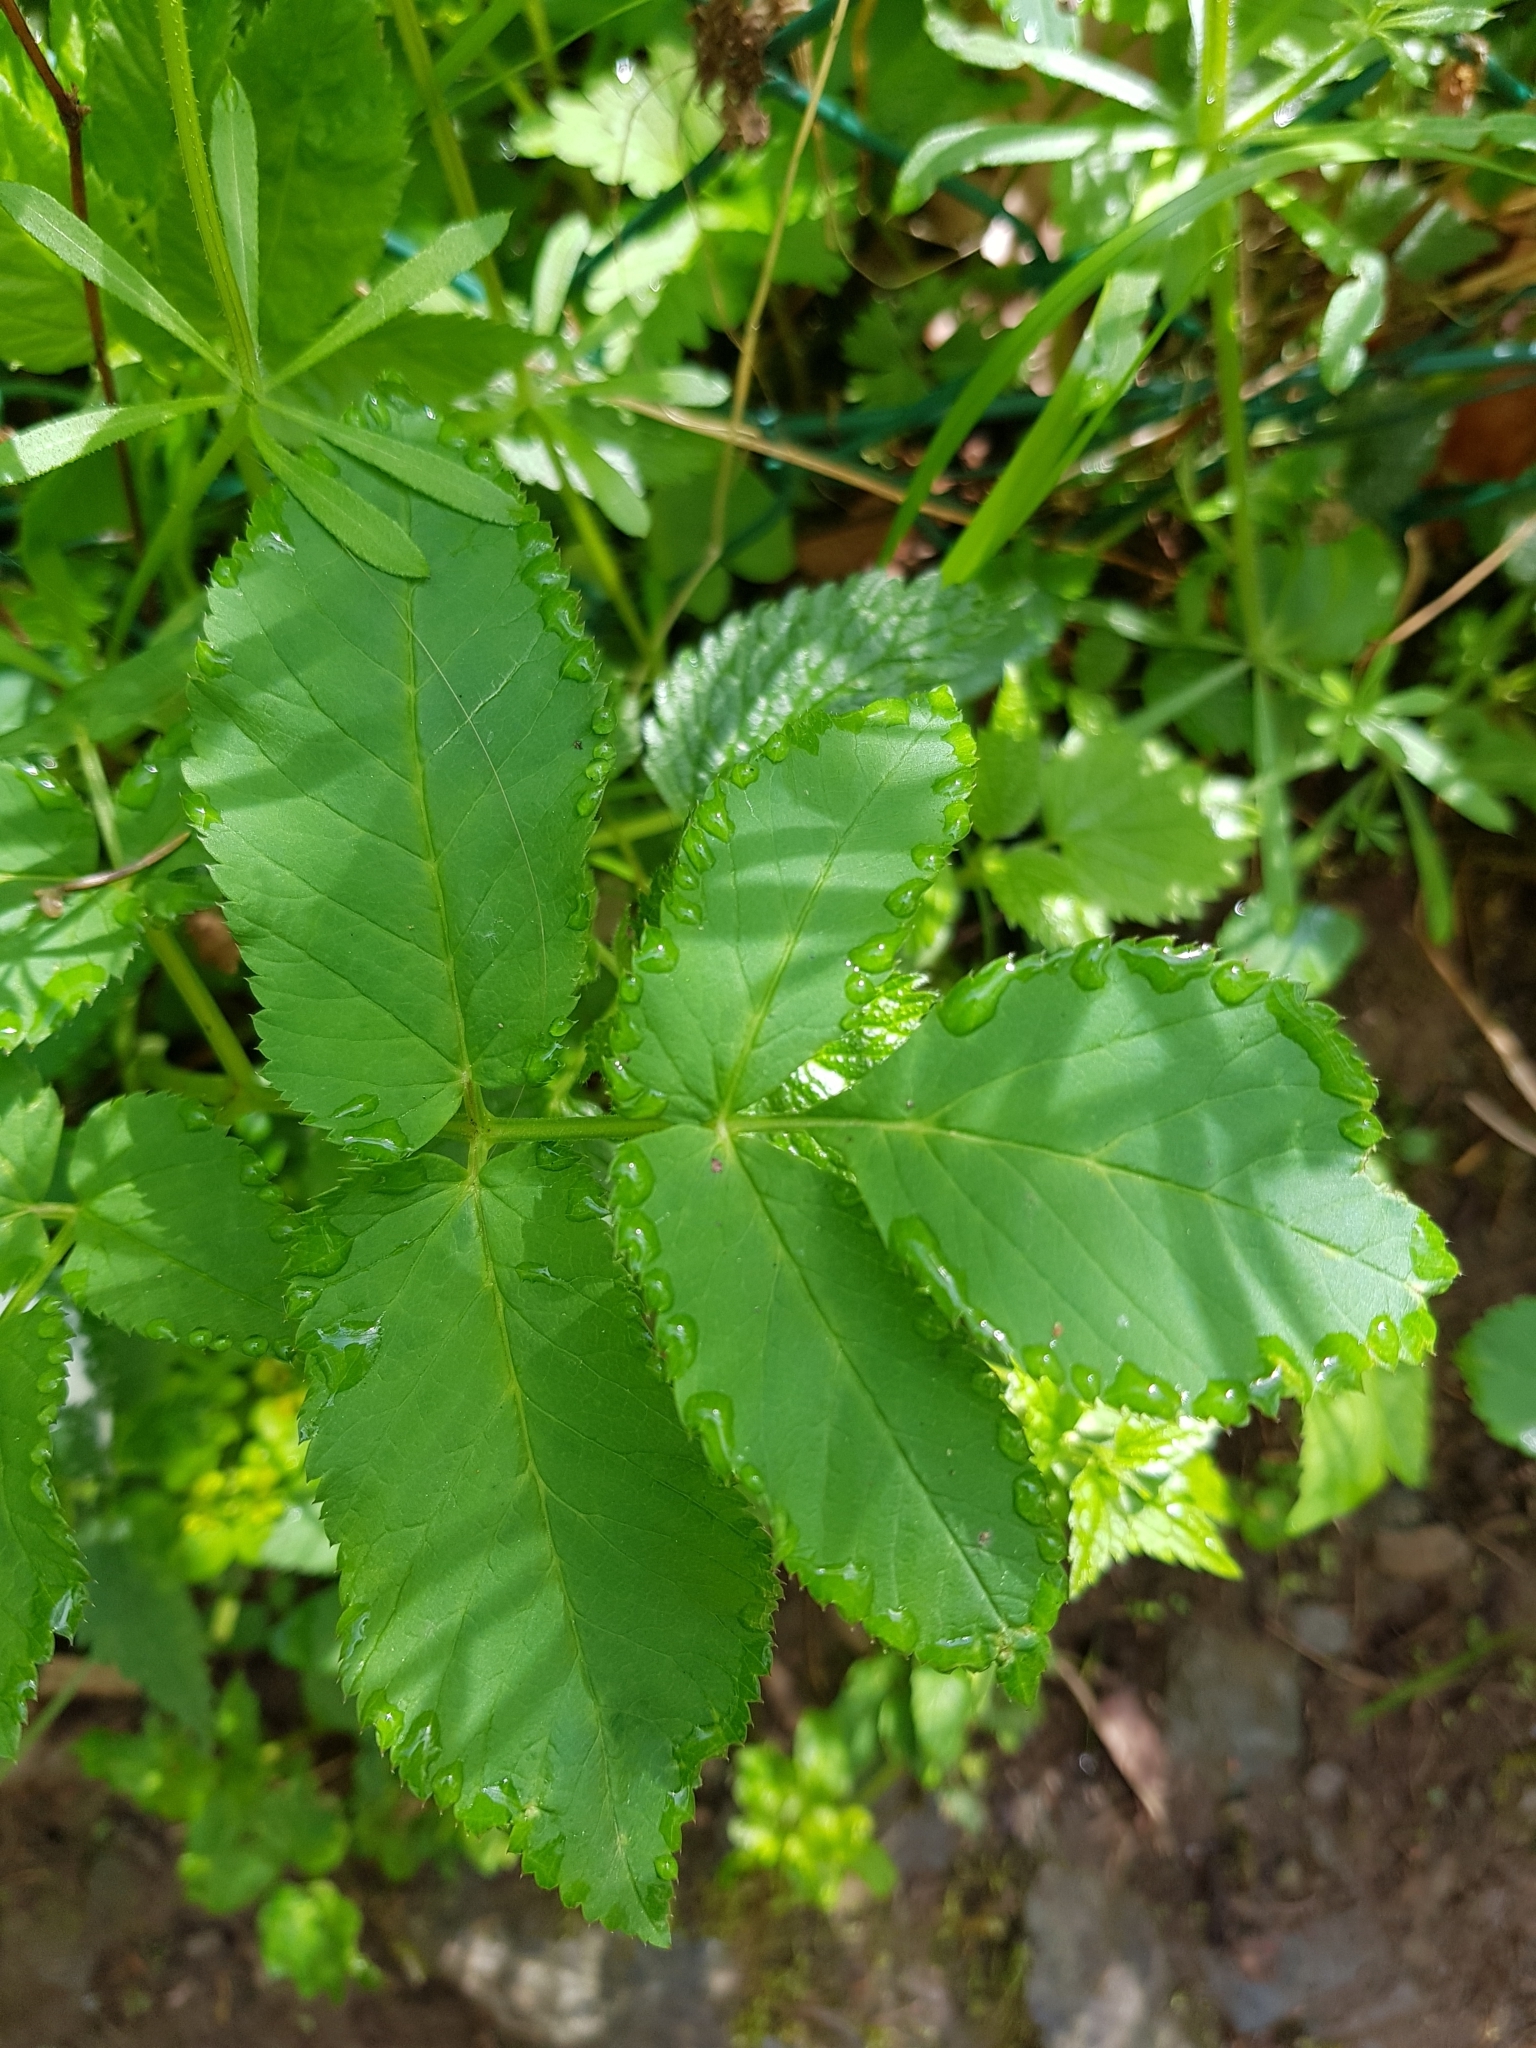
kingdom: Plantae
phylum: Tracheophyta
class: Magnoliopsida
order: Apiales
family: Apiaceae
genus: Aegopodium
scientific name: Aegopodium podagraria
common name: Ground-elder
